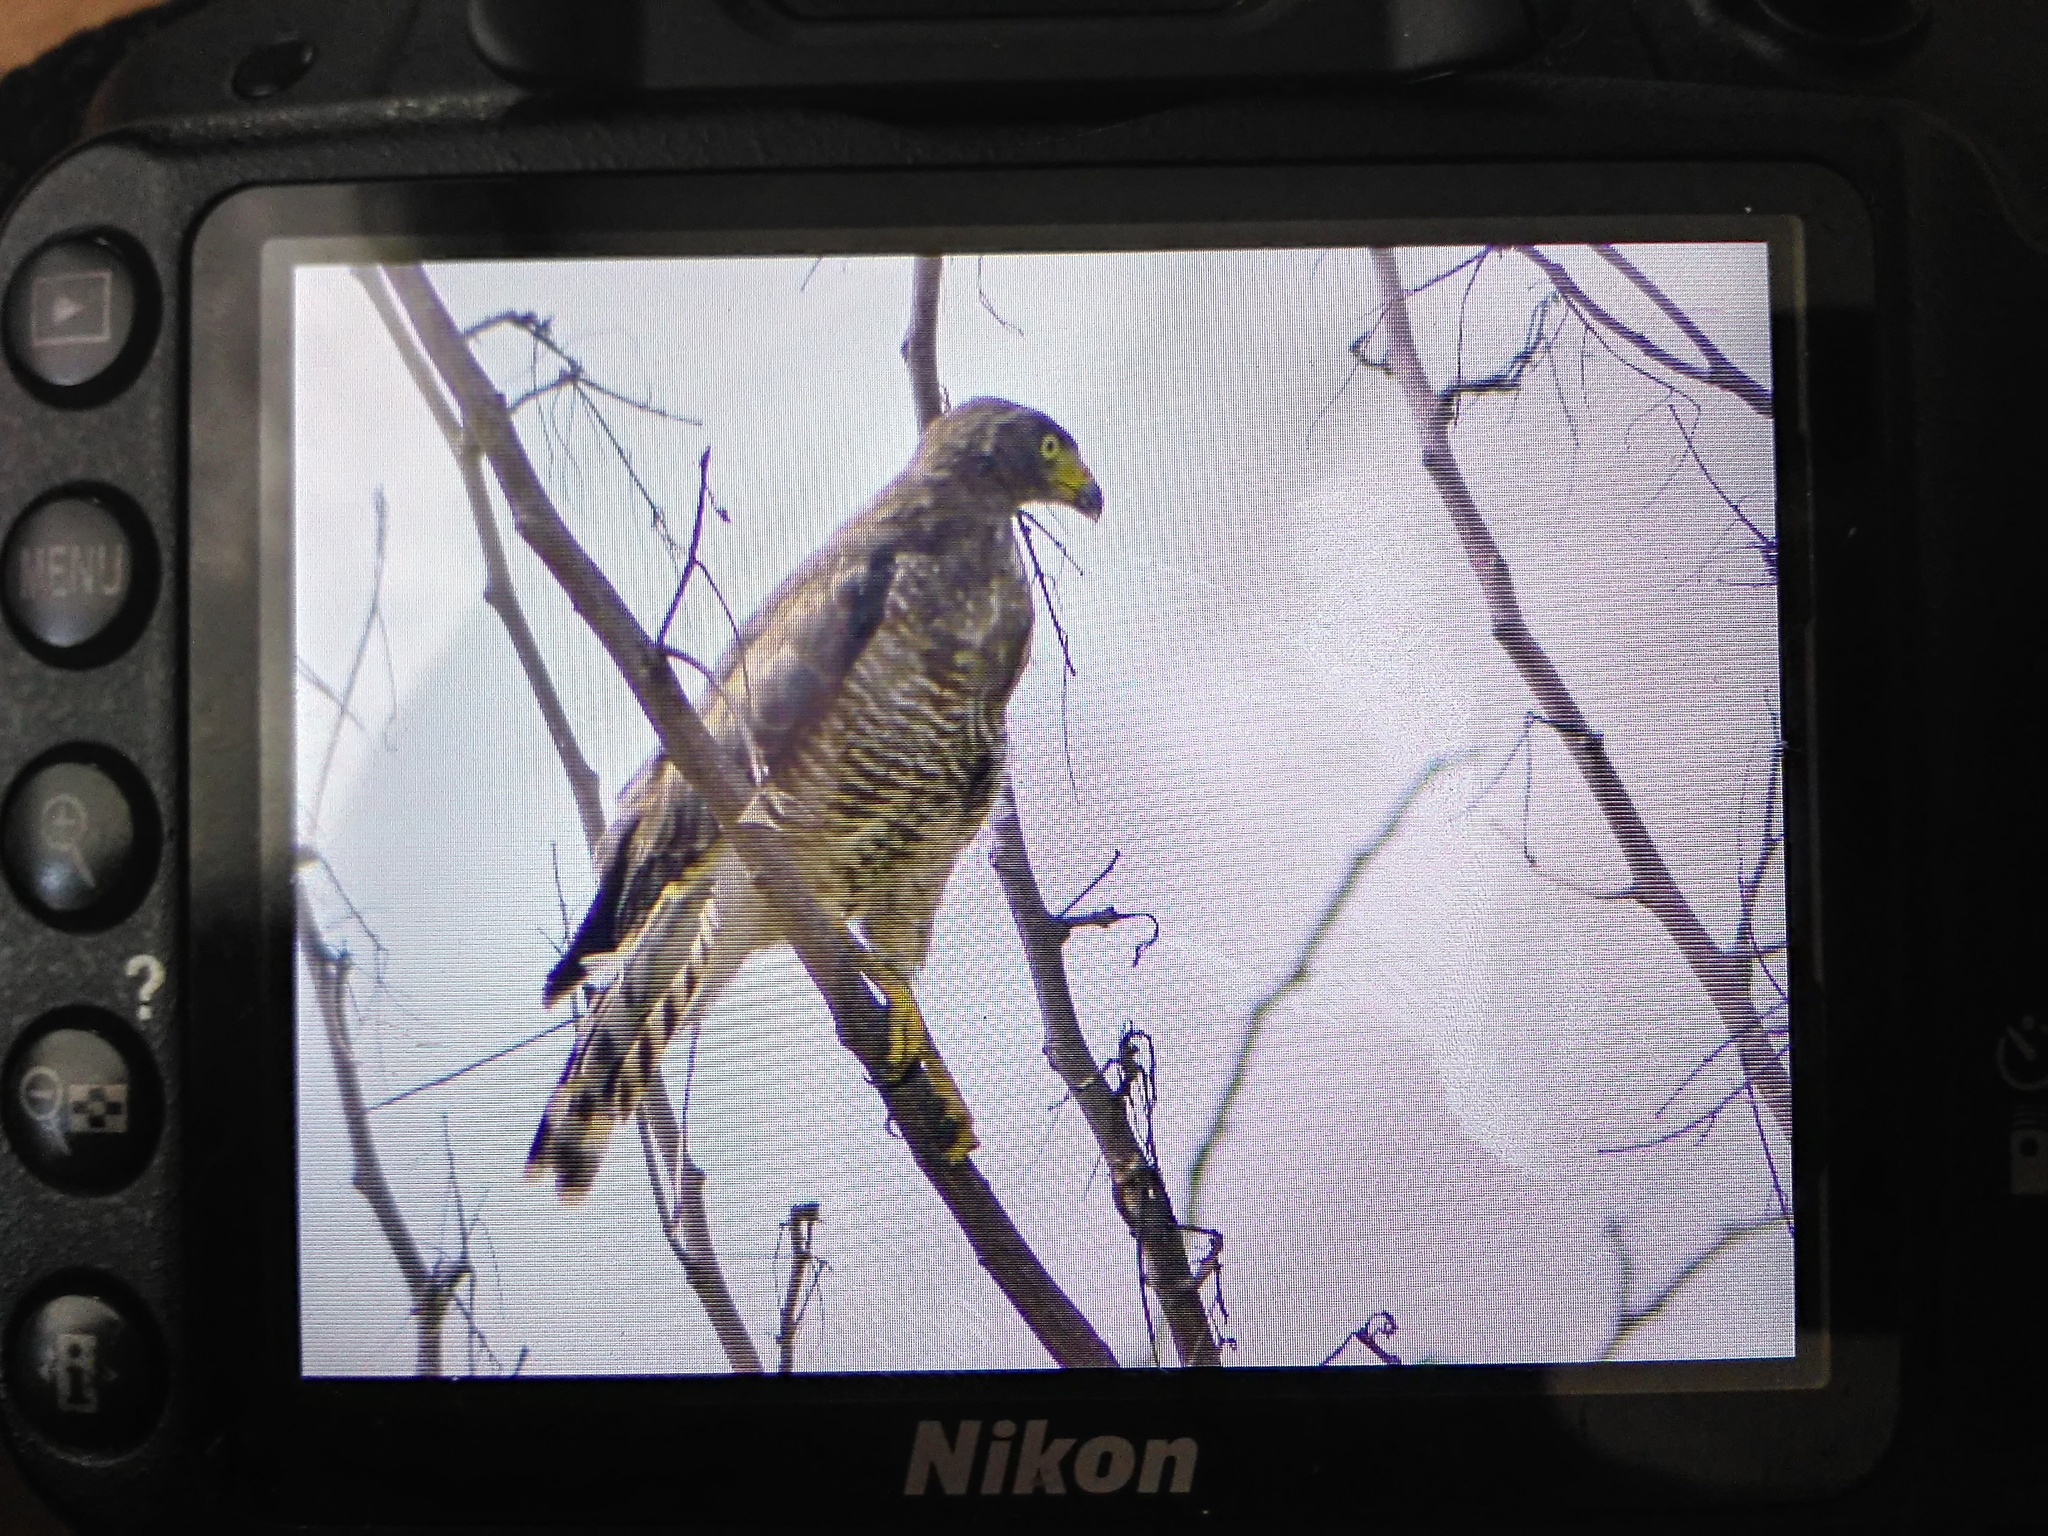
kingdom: Animalia
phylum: Chordata
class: Aves
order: Accipitriformes
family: Accipitridae
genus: Rupornis
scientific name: Rupornis magnirostris
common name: Roadside hawk
